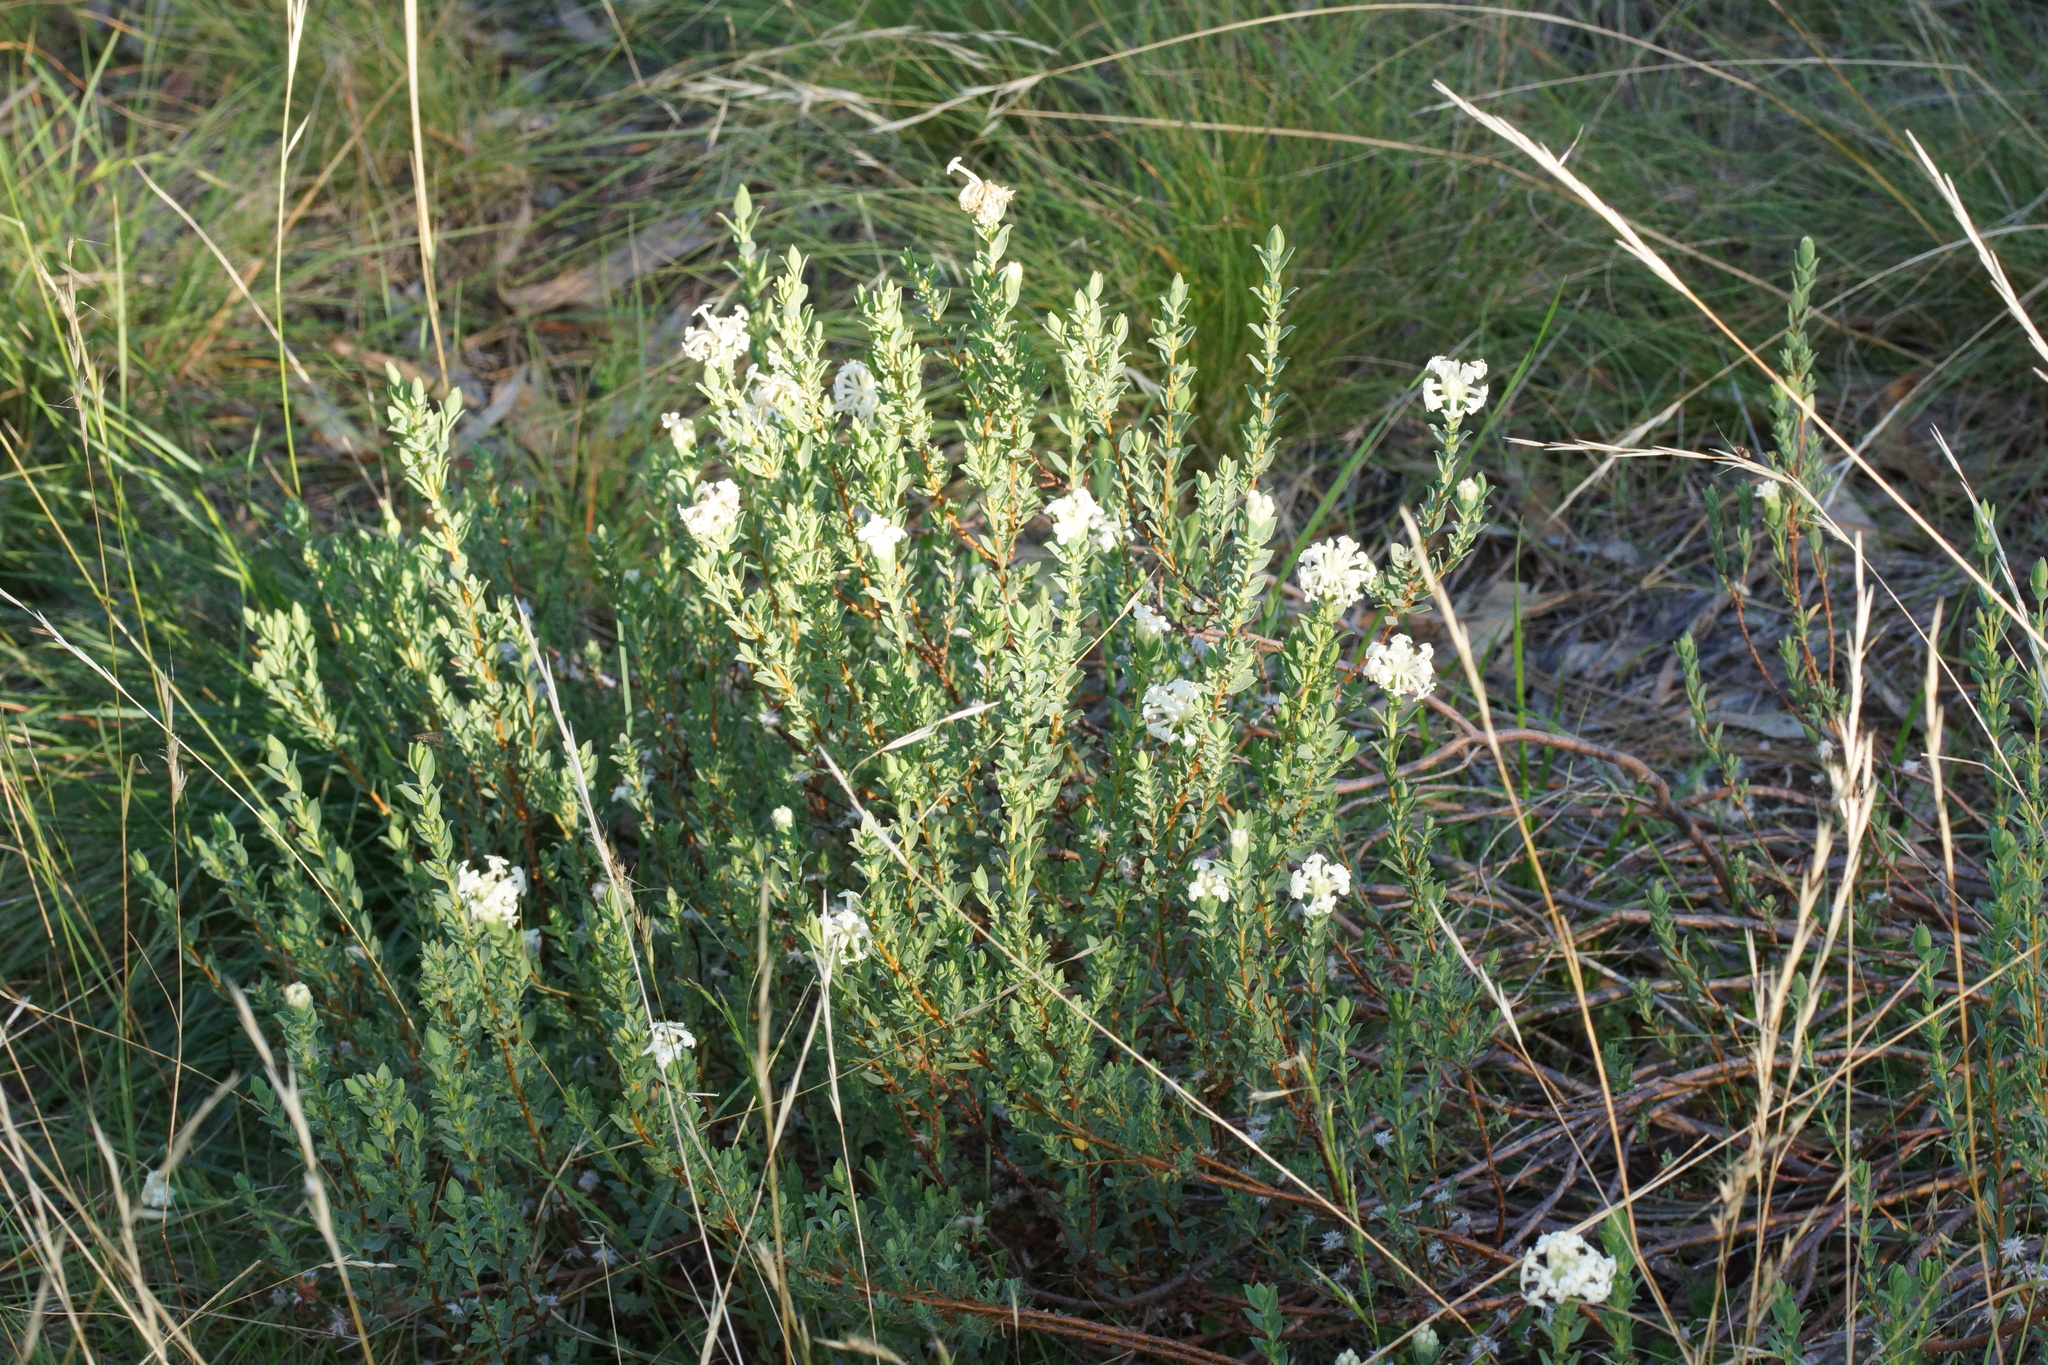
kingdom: Plantae
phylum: Tracheophyta
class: Magnoliopsida
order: Malvales
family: Thymelaeaceae
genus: Pimelea
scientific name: Pimelea glauca
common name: Smooth riceflower
